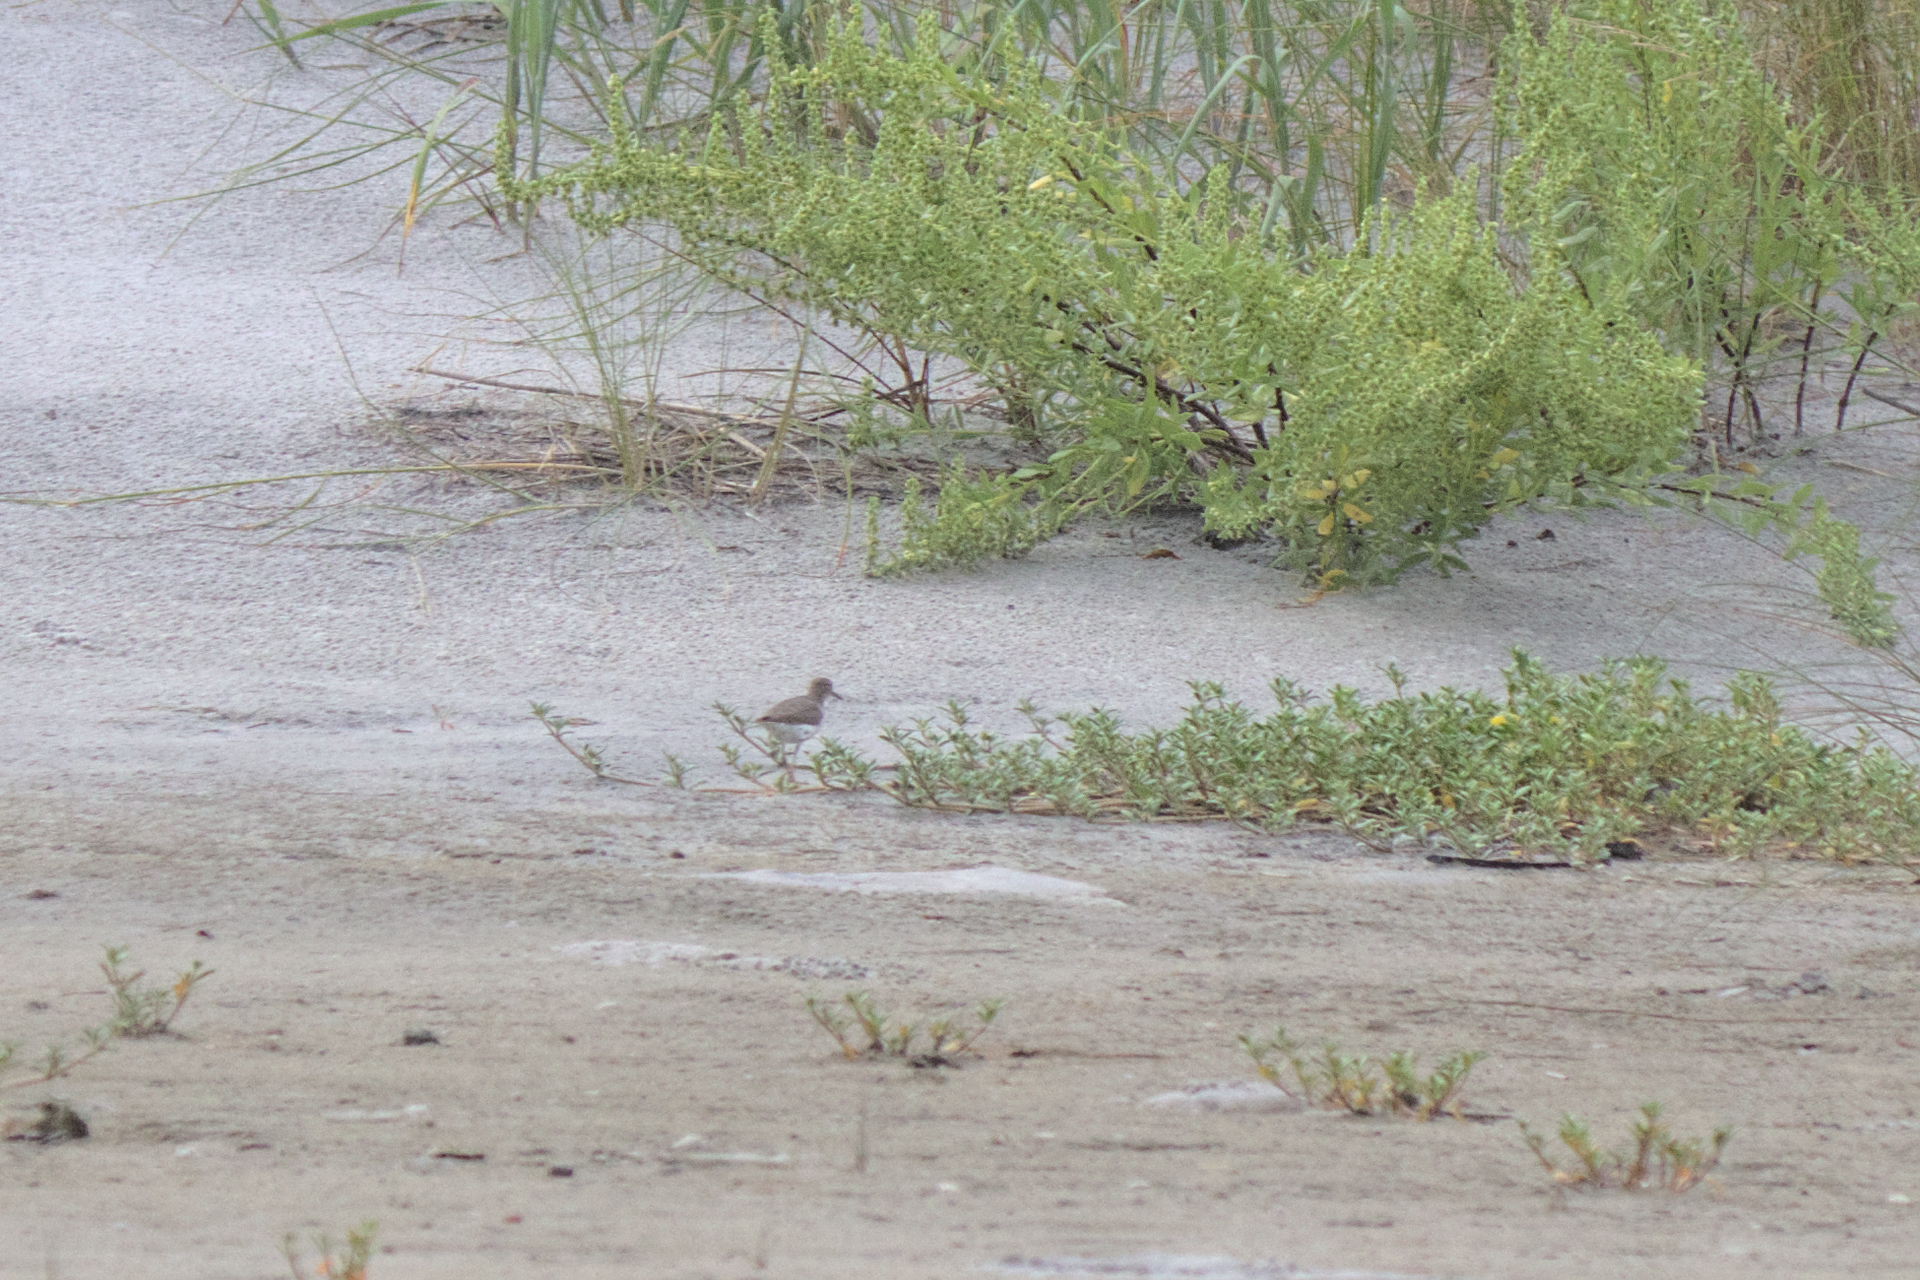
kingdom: Animalia
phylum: Chordata
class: Aves
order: Charadriiformes
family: Scolopacidae
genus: Actitis
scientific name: Actitis macularius
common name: Spotted sandpiper
